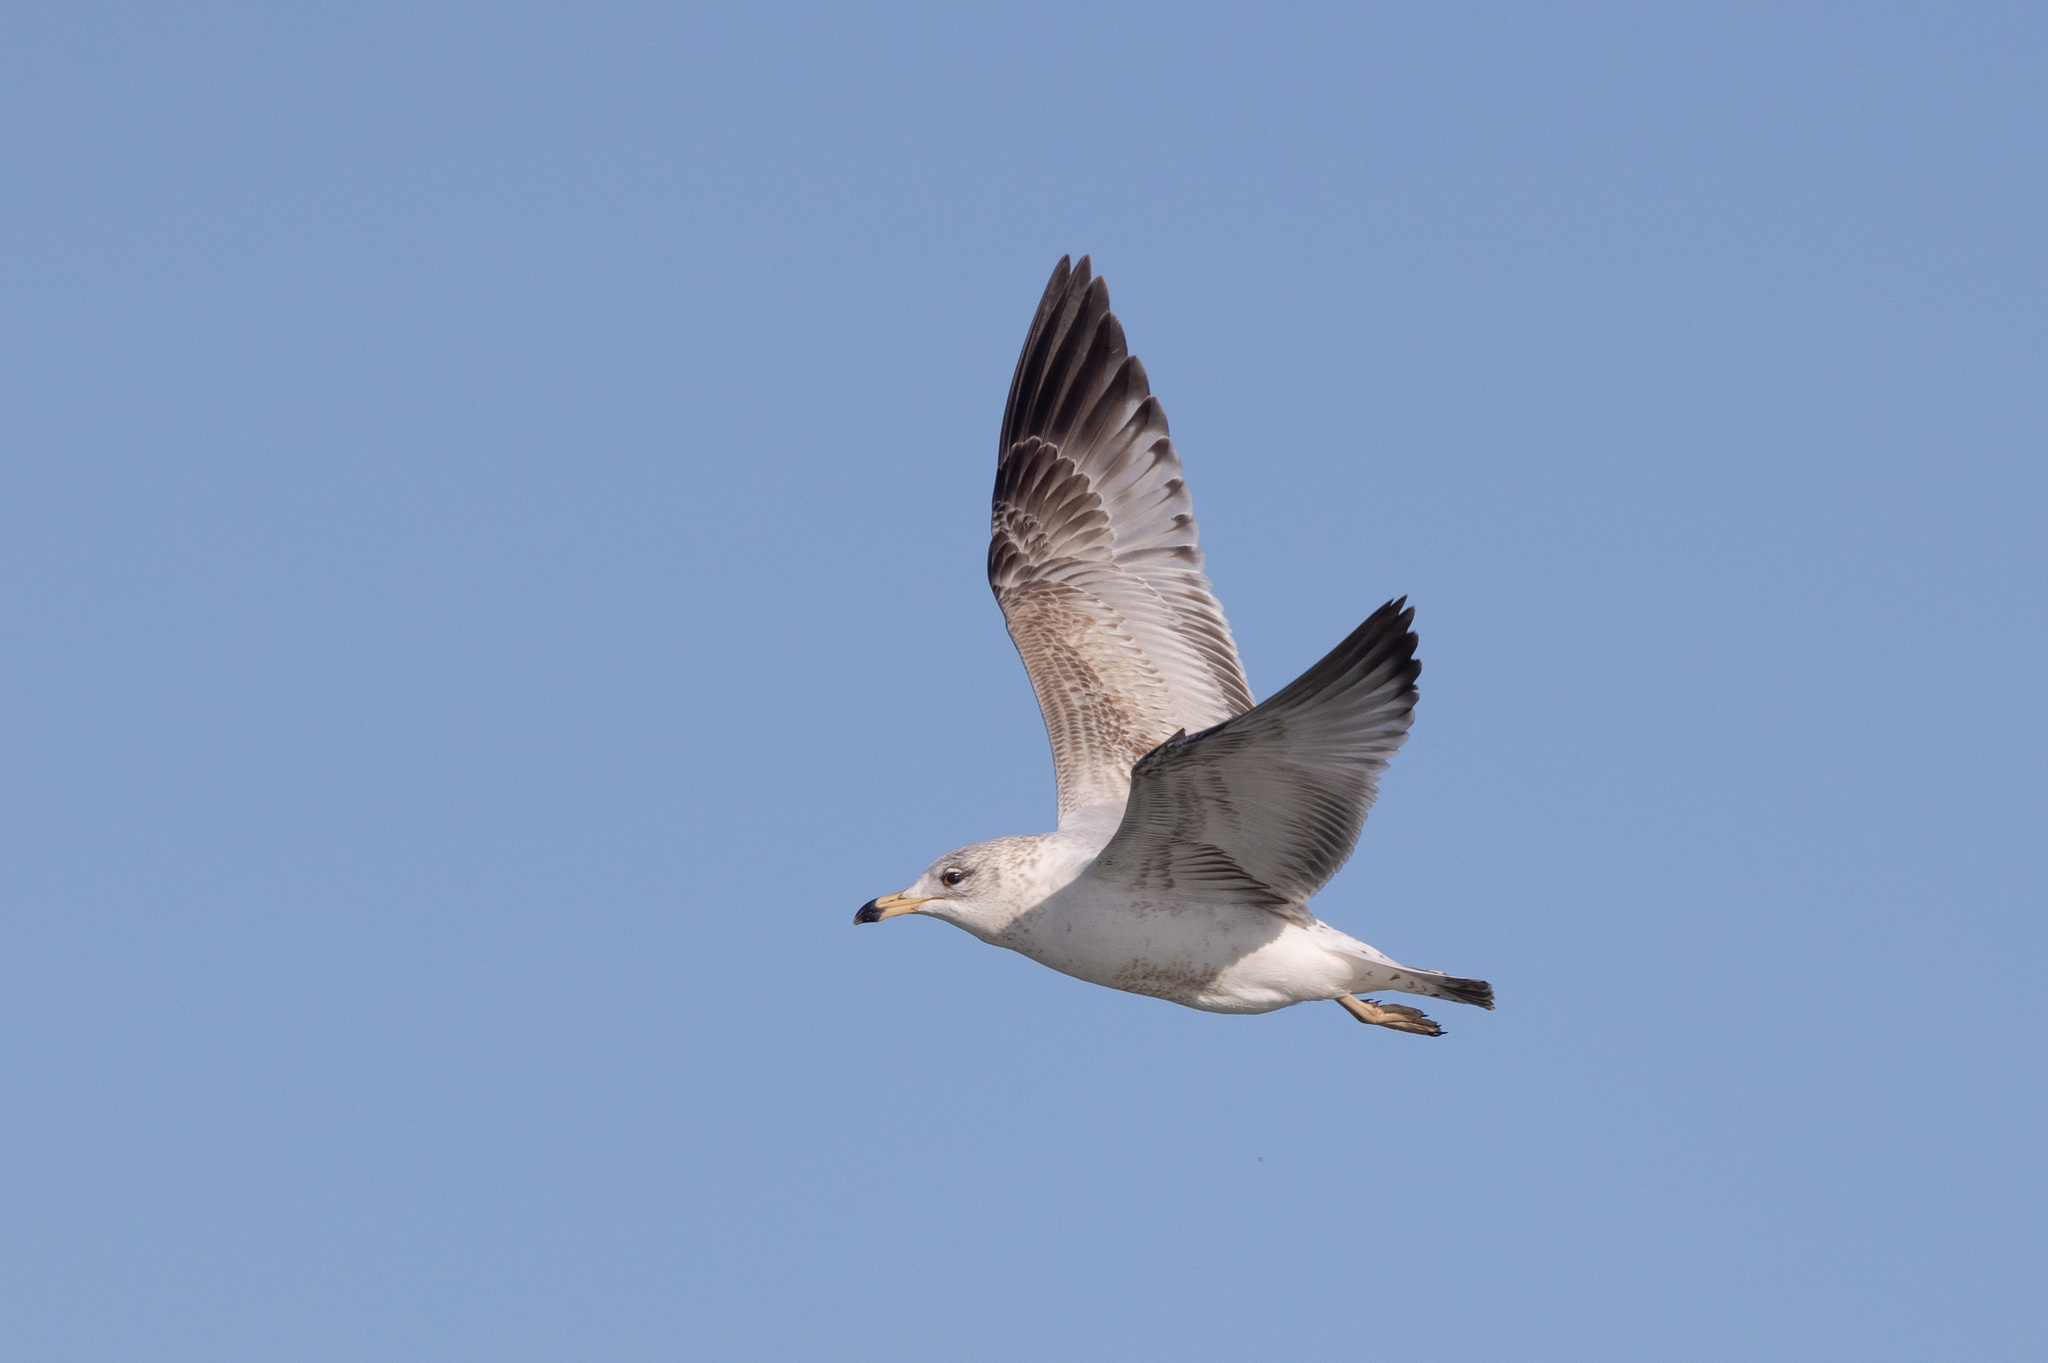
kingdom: Animalia
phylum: Chordata
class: Aves
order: Charadriiformes
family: Laridae
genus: Larus
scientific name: Larus delawarensis
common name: Ring-billed gull
